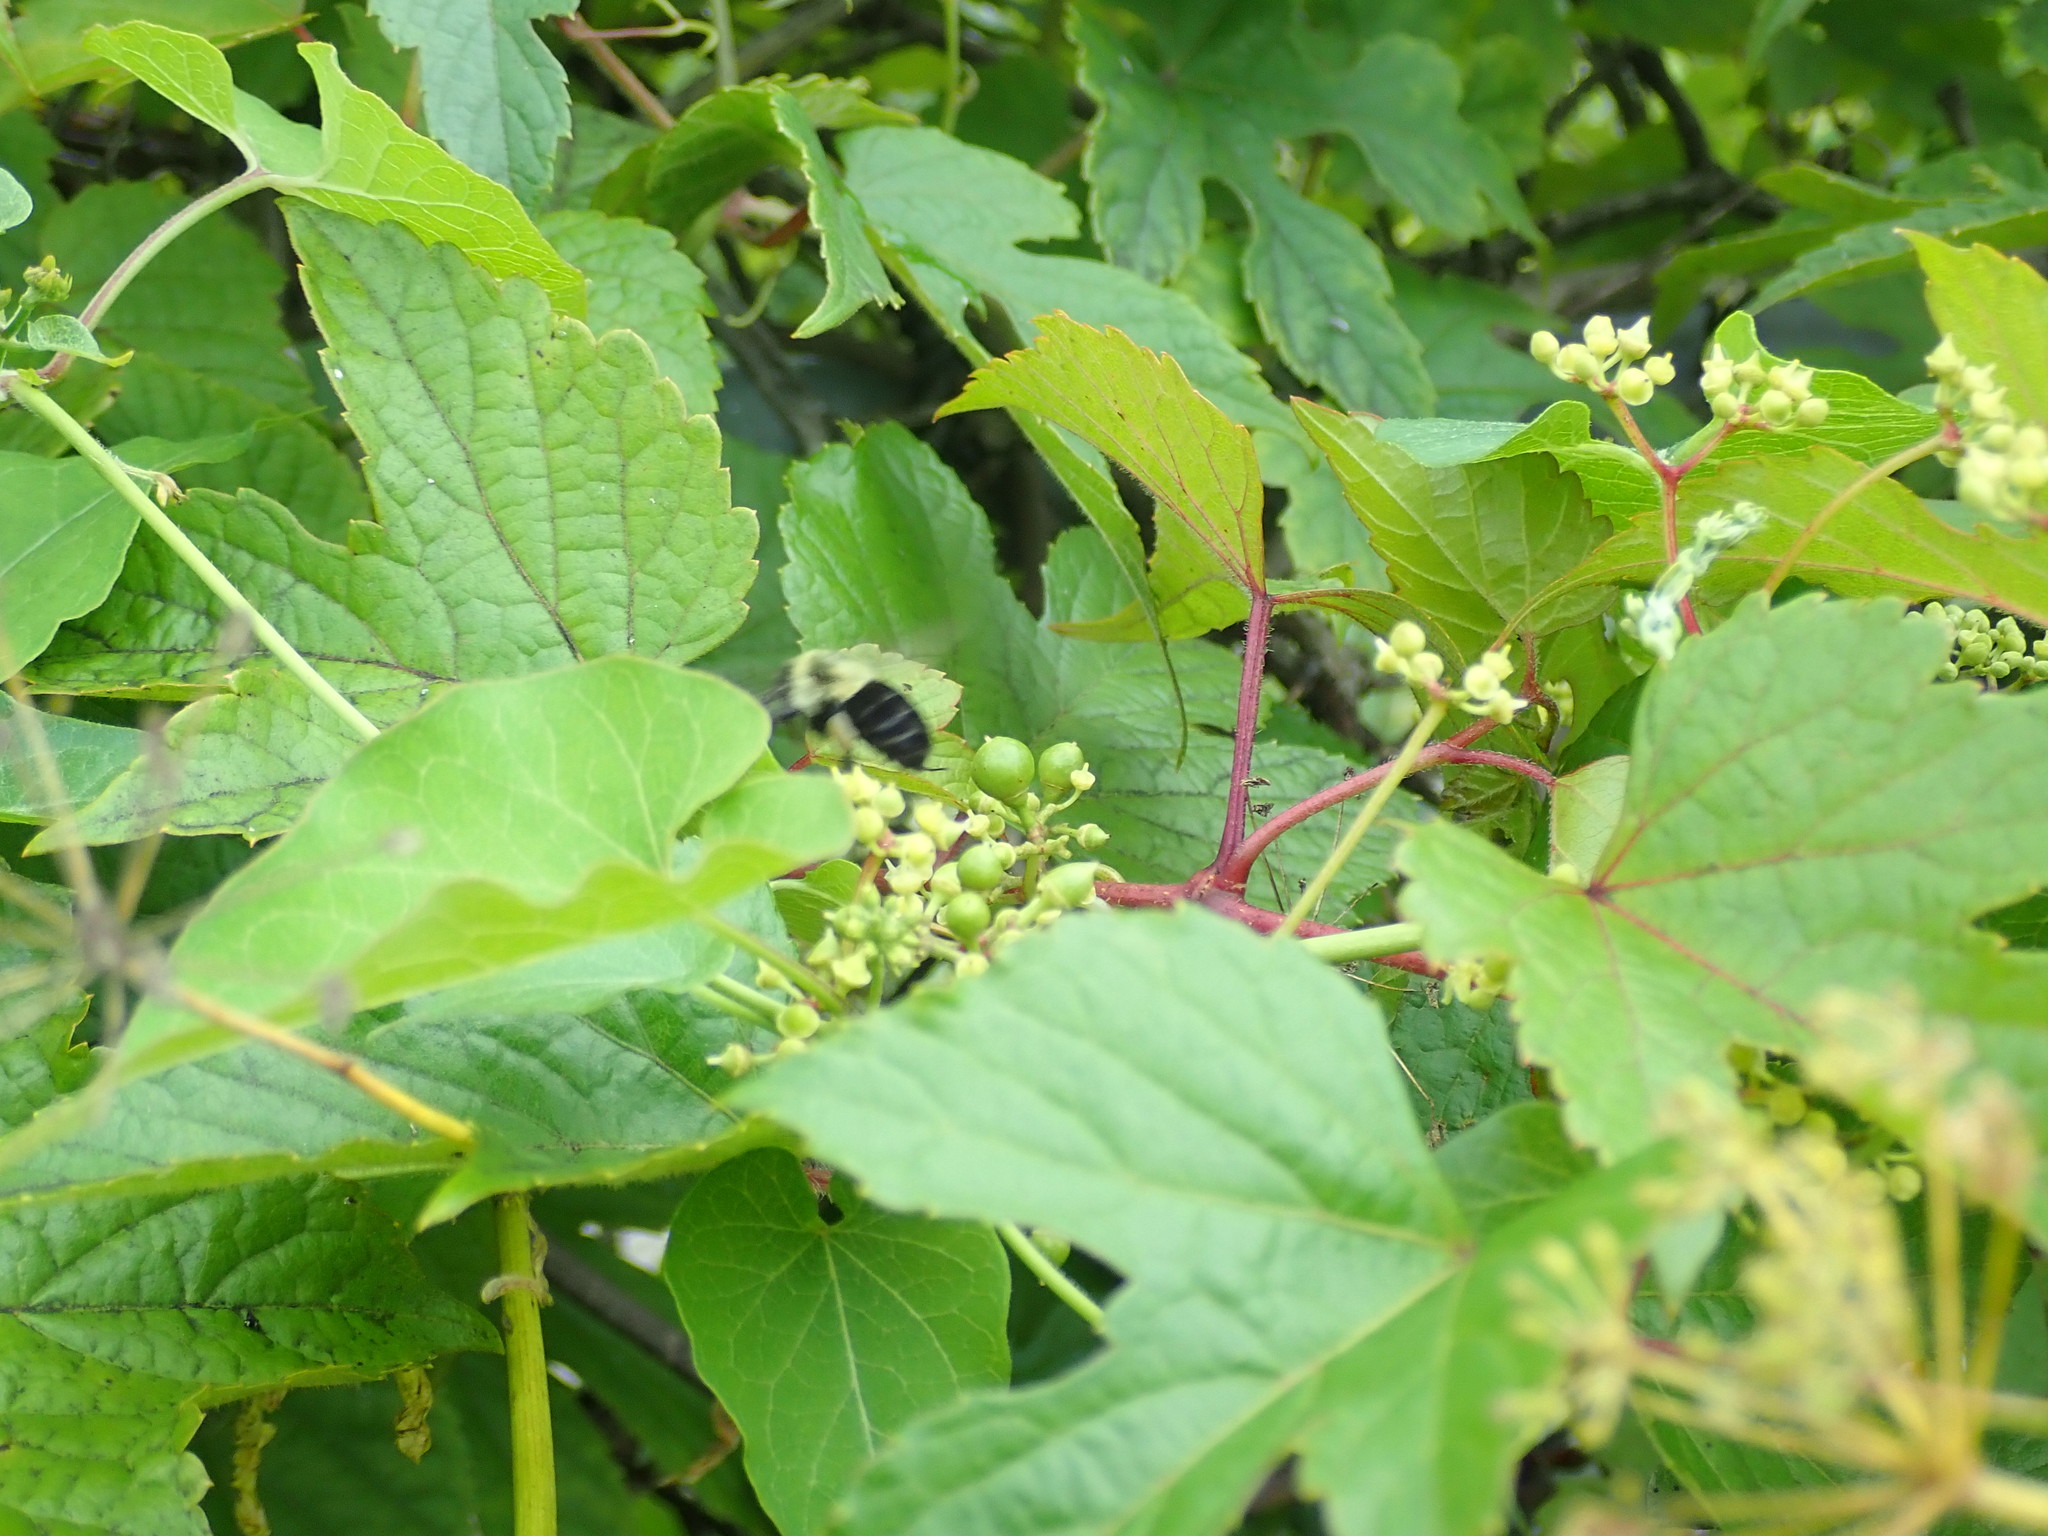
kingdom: Animalia
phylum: Arthropoda
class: Insecta
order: Hymenoptera
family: Apidae
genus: Bombus
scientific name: Bombus impatiens
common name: Common eastern bumble bee
